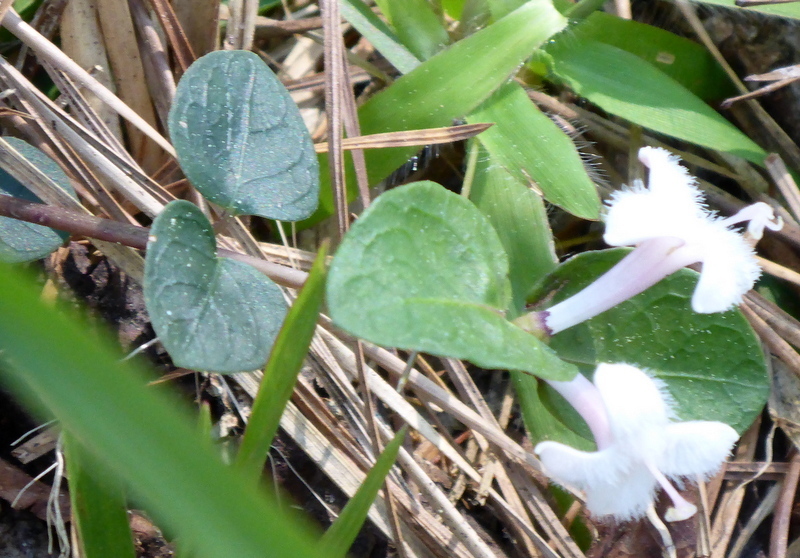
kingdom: Plantae
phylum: Tracheophyta
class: Magnoliopsida
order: Gentianales
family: Rubiaceae
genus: Mitchella
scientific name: Mitchella repens
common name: Partridge-berry
